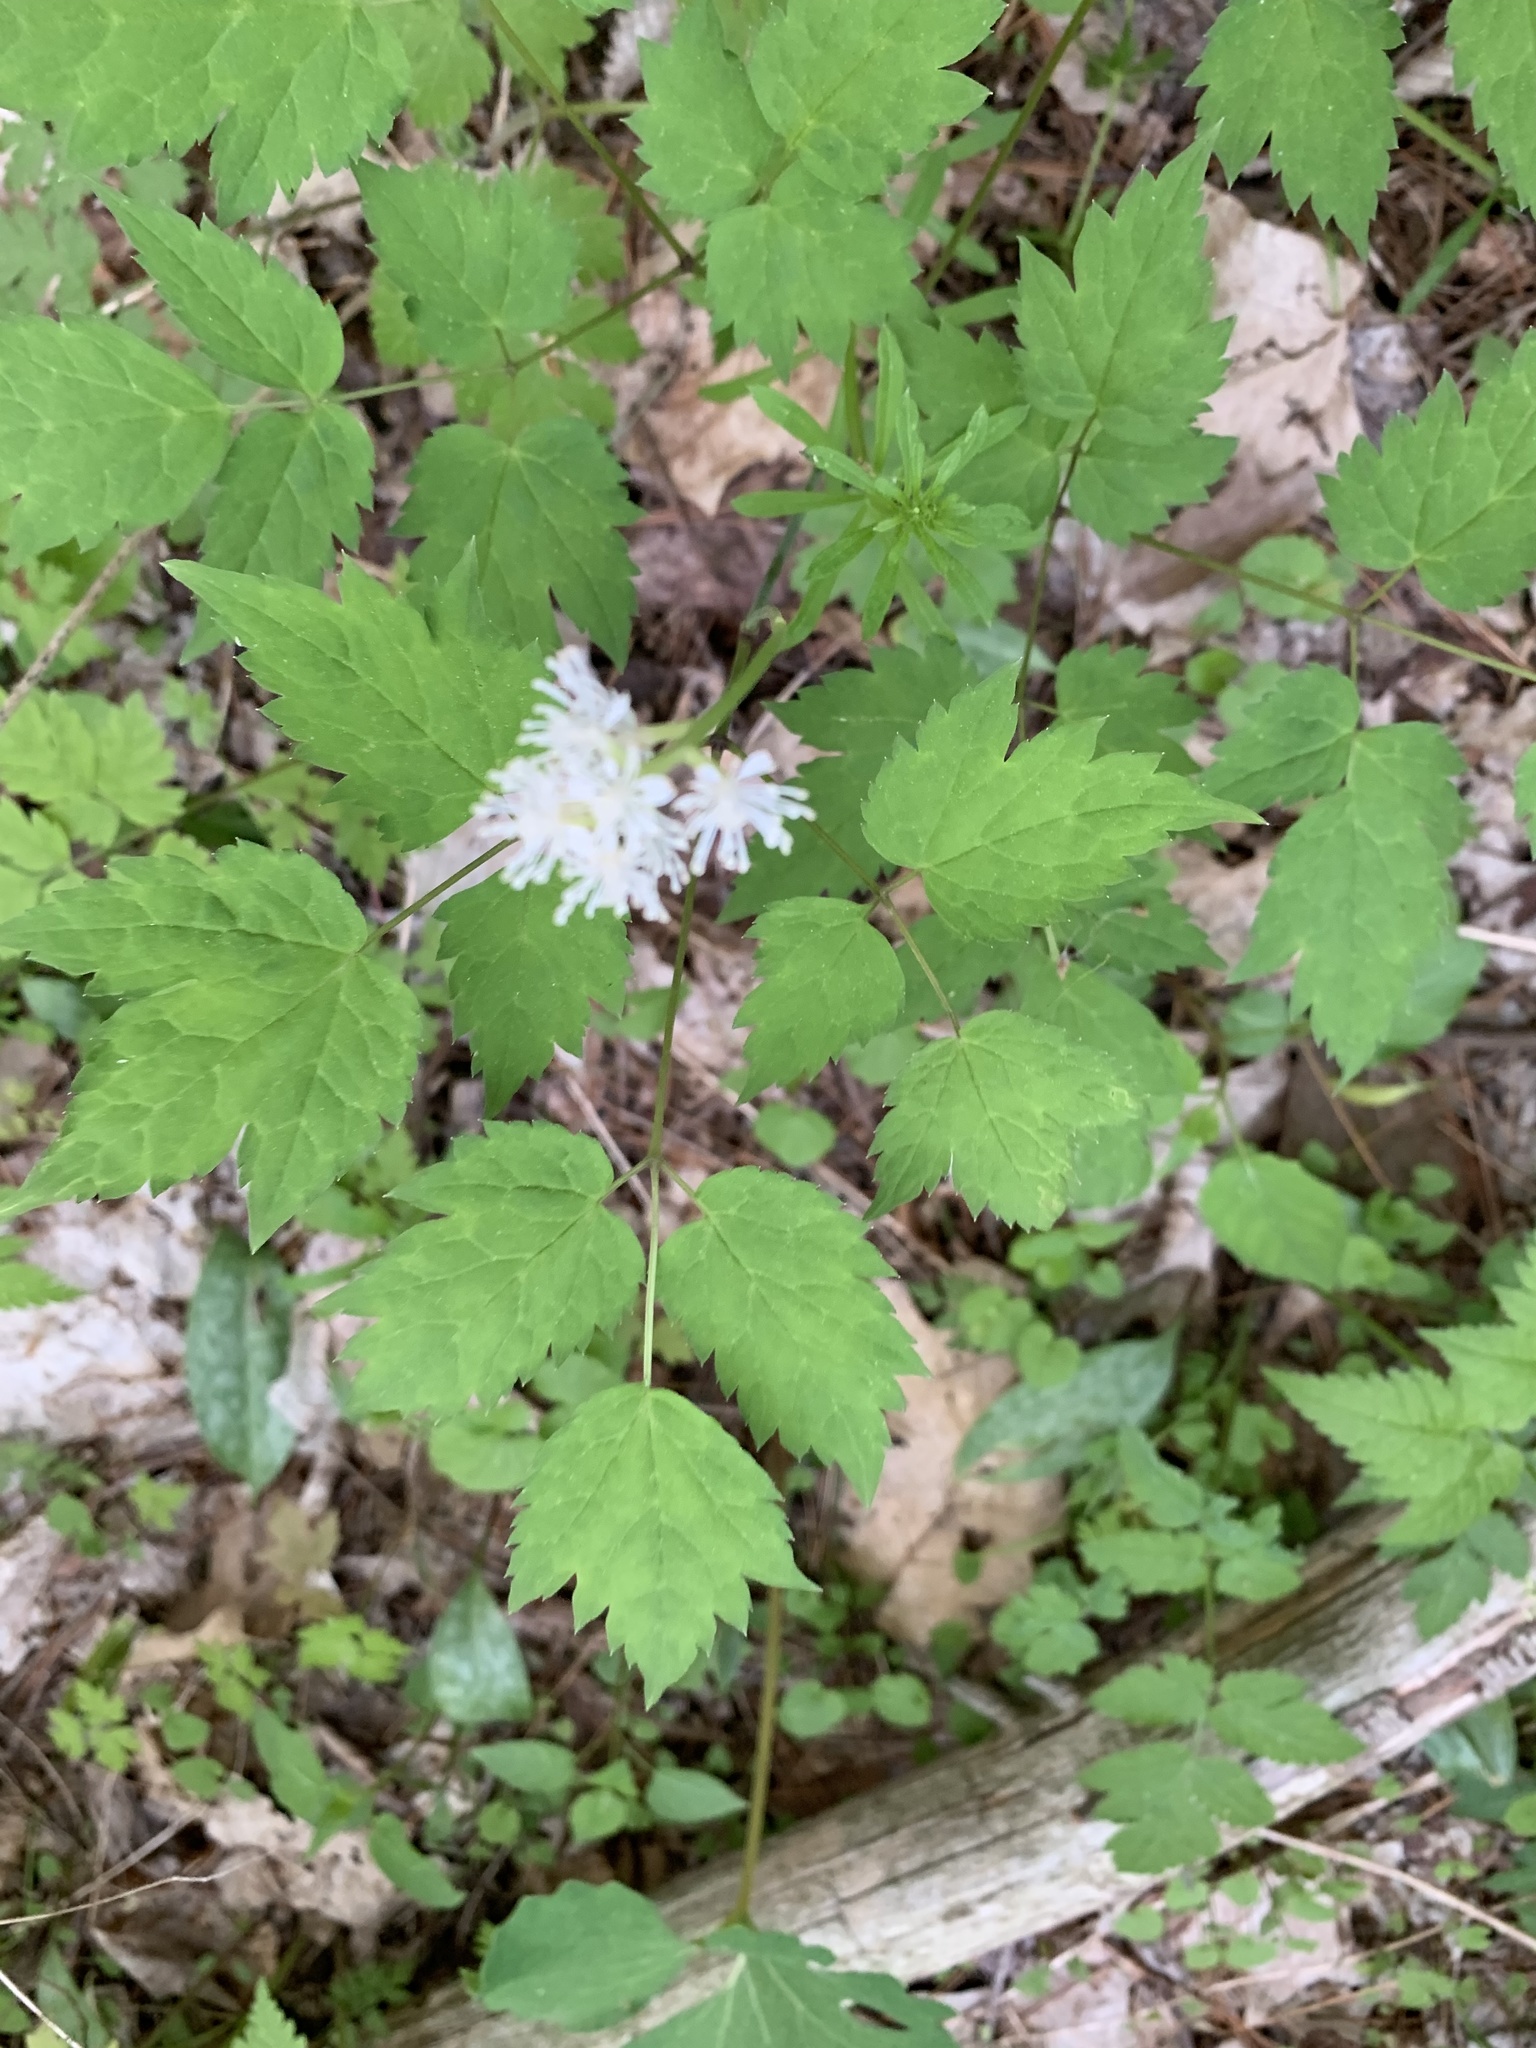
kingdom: Plantae
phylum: Tracheophyta
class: Magnoliopsida
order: Ranunculales
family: Ranunculaceae
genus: Actaea
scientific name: Actaea pachypoda
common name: Doll's-eyes
